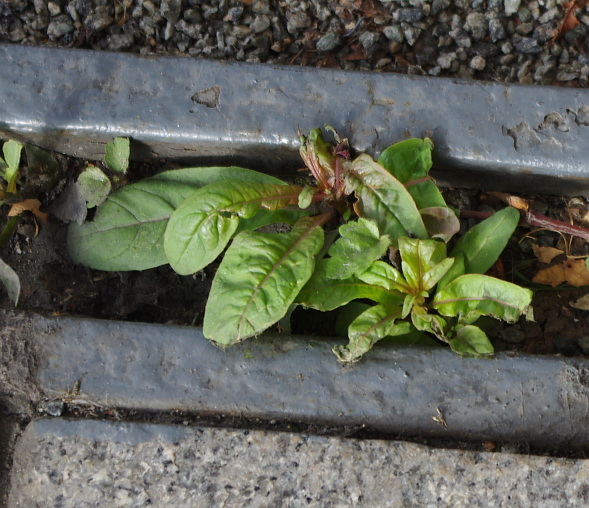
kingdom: Plantae
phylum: Tracheophyta
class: Magnoliopsida
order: Myrtales
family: Onagraceae
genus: Chamaenerion
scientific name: Chamaenerion angustifolium
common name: Fireweed
